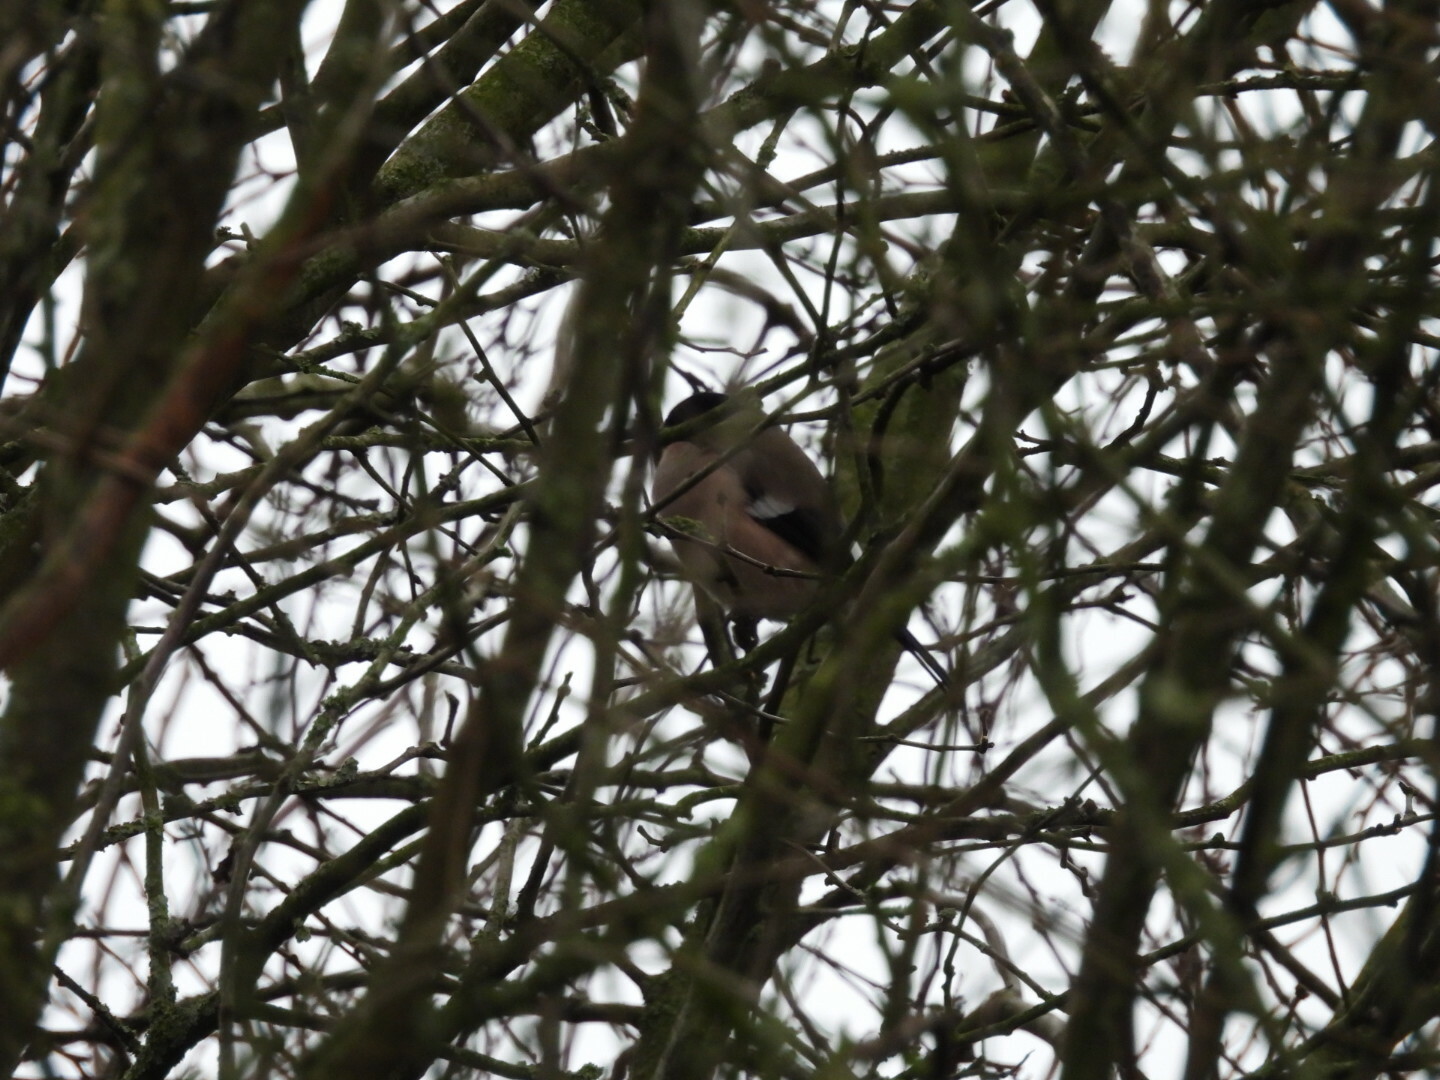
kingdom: Animalia
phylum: Chordata
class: Aves
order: Passeriformes
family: Fringillidae
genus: Pyrrhula
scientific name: Pyrrhula pyrrhula
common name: Eurasian bullfinch
